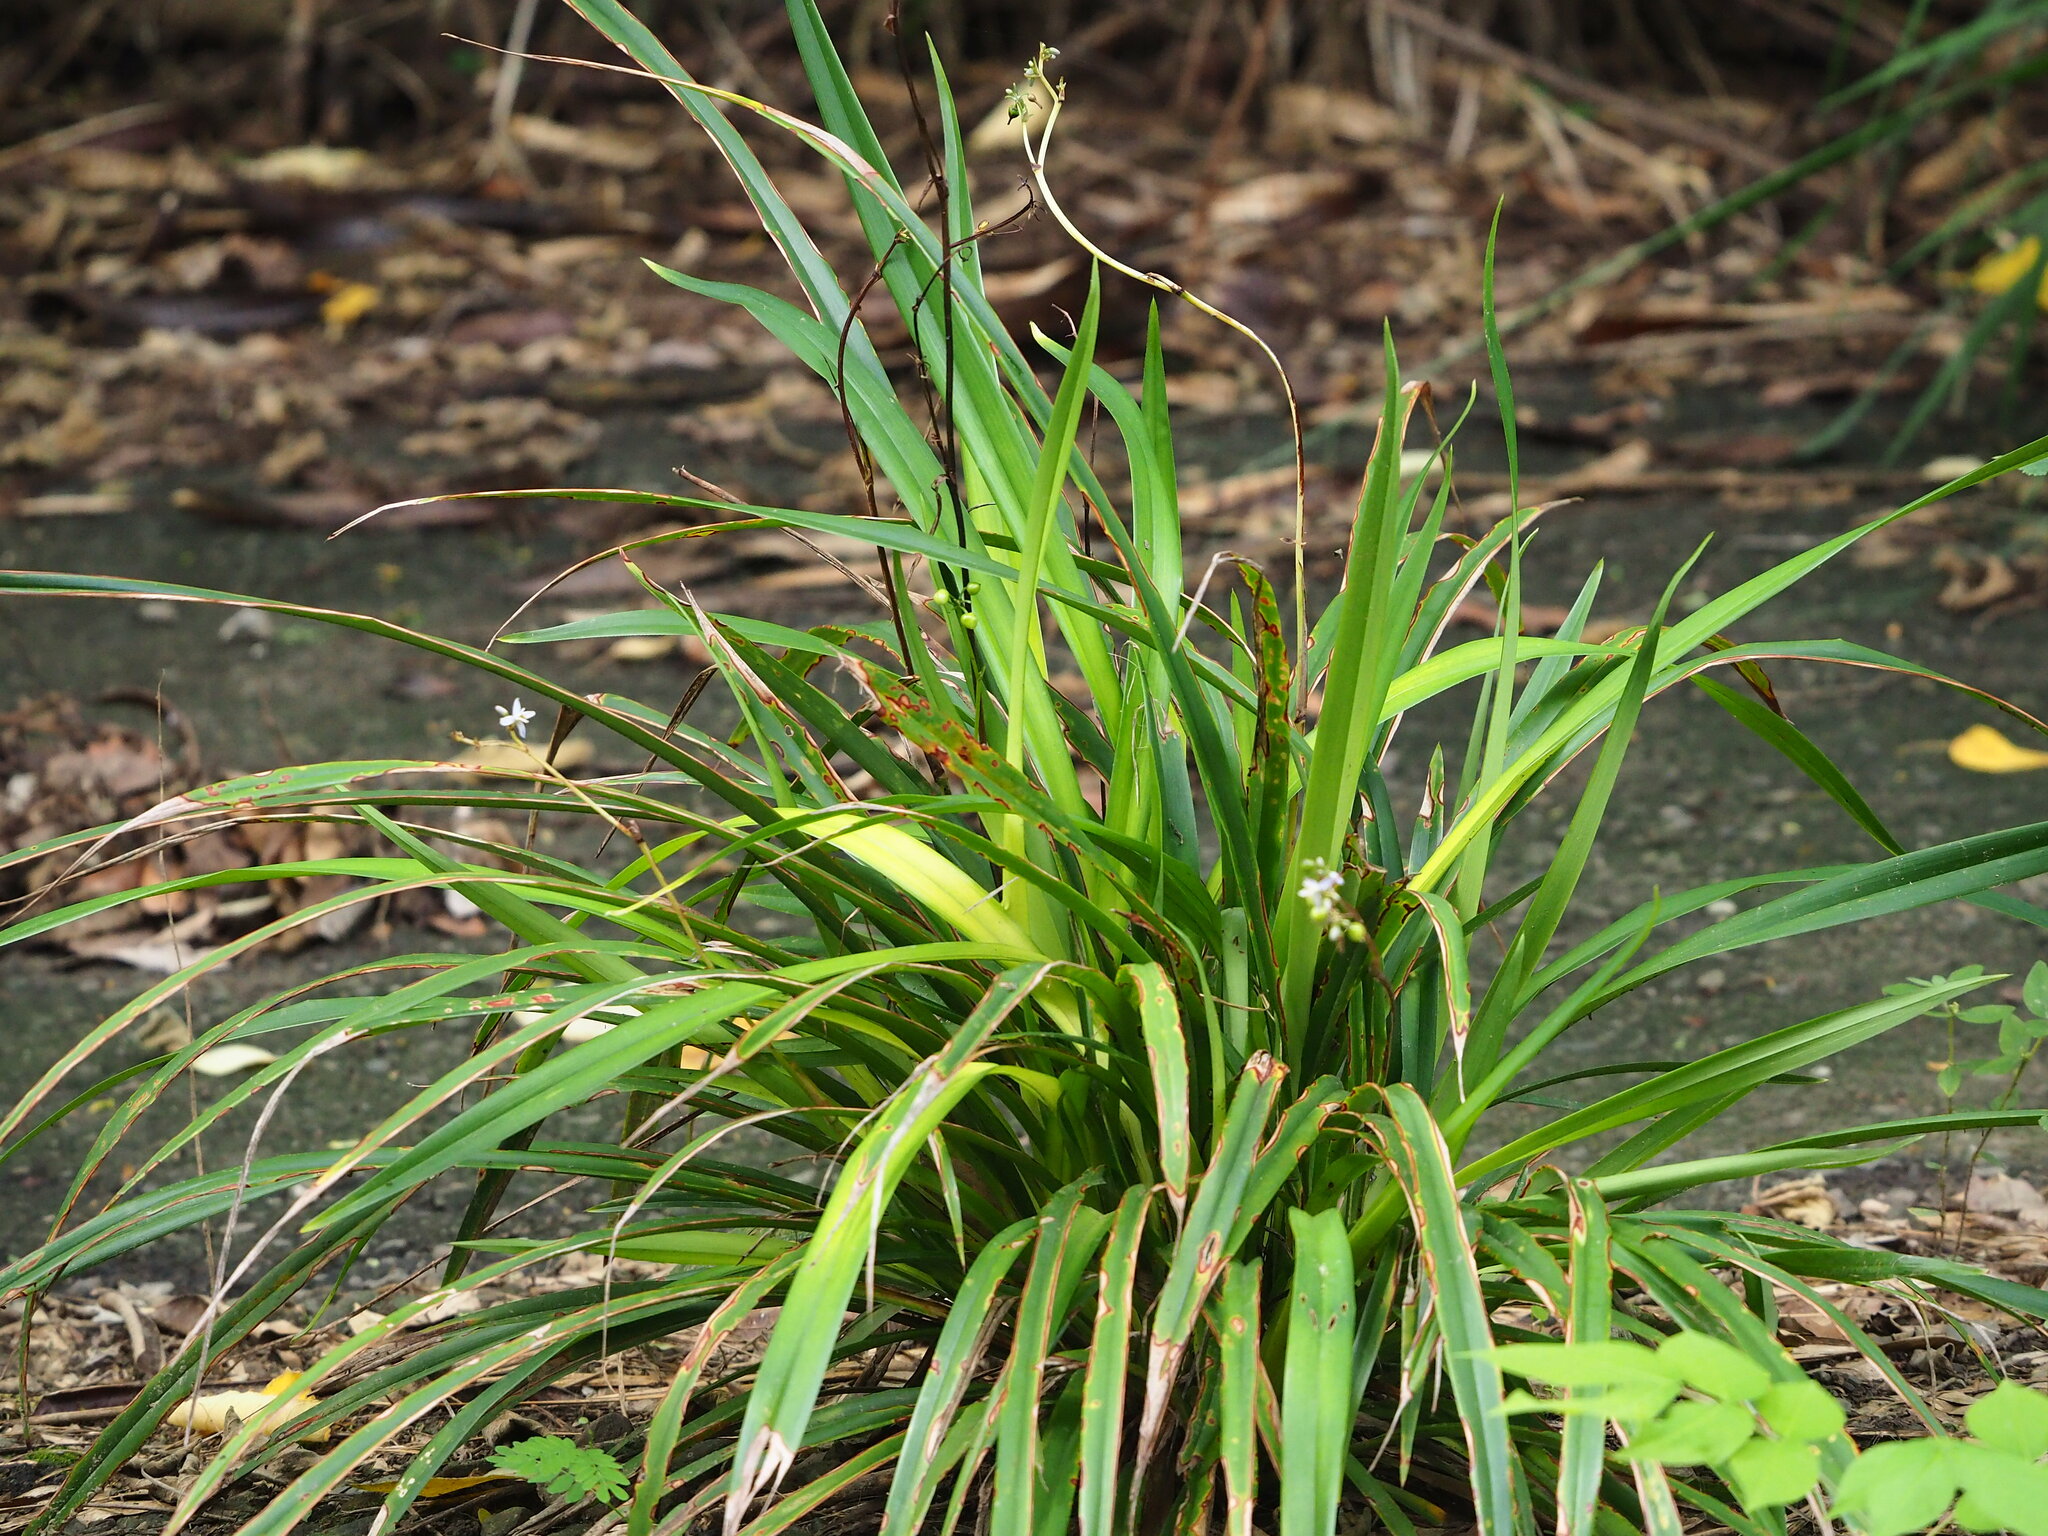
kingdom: Plantae
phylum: Tracheophyta
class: Liliopsida
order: Asparagales
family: Asphodelaceae
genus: Dianella
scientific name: Dianella ensifolia
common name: New zealand lilyplant
